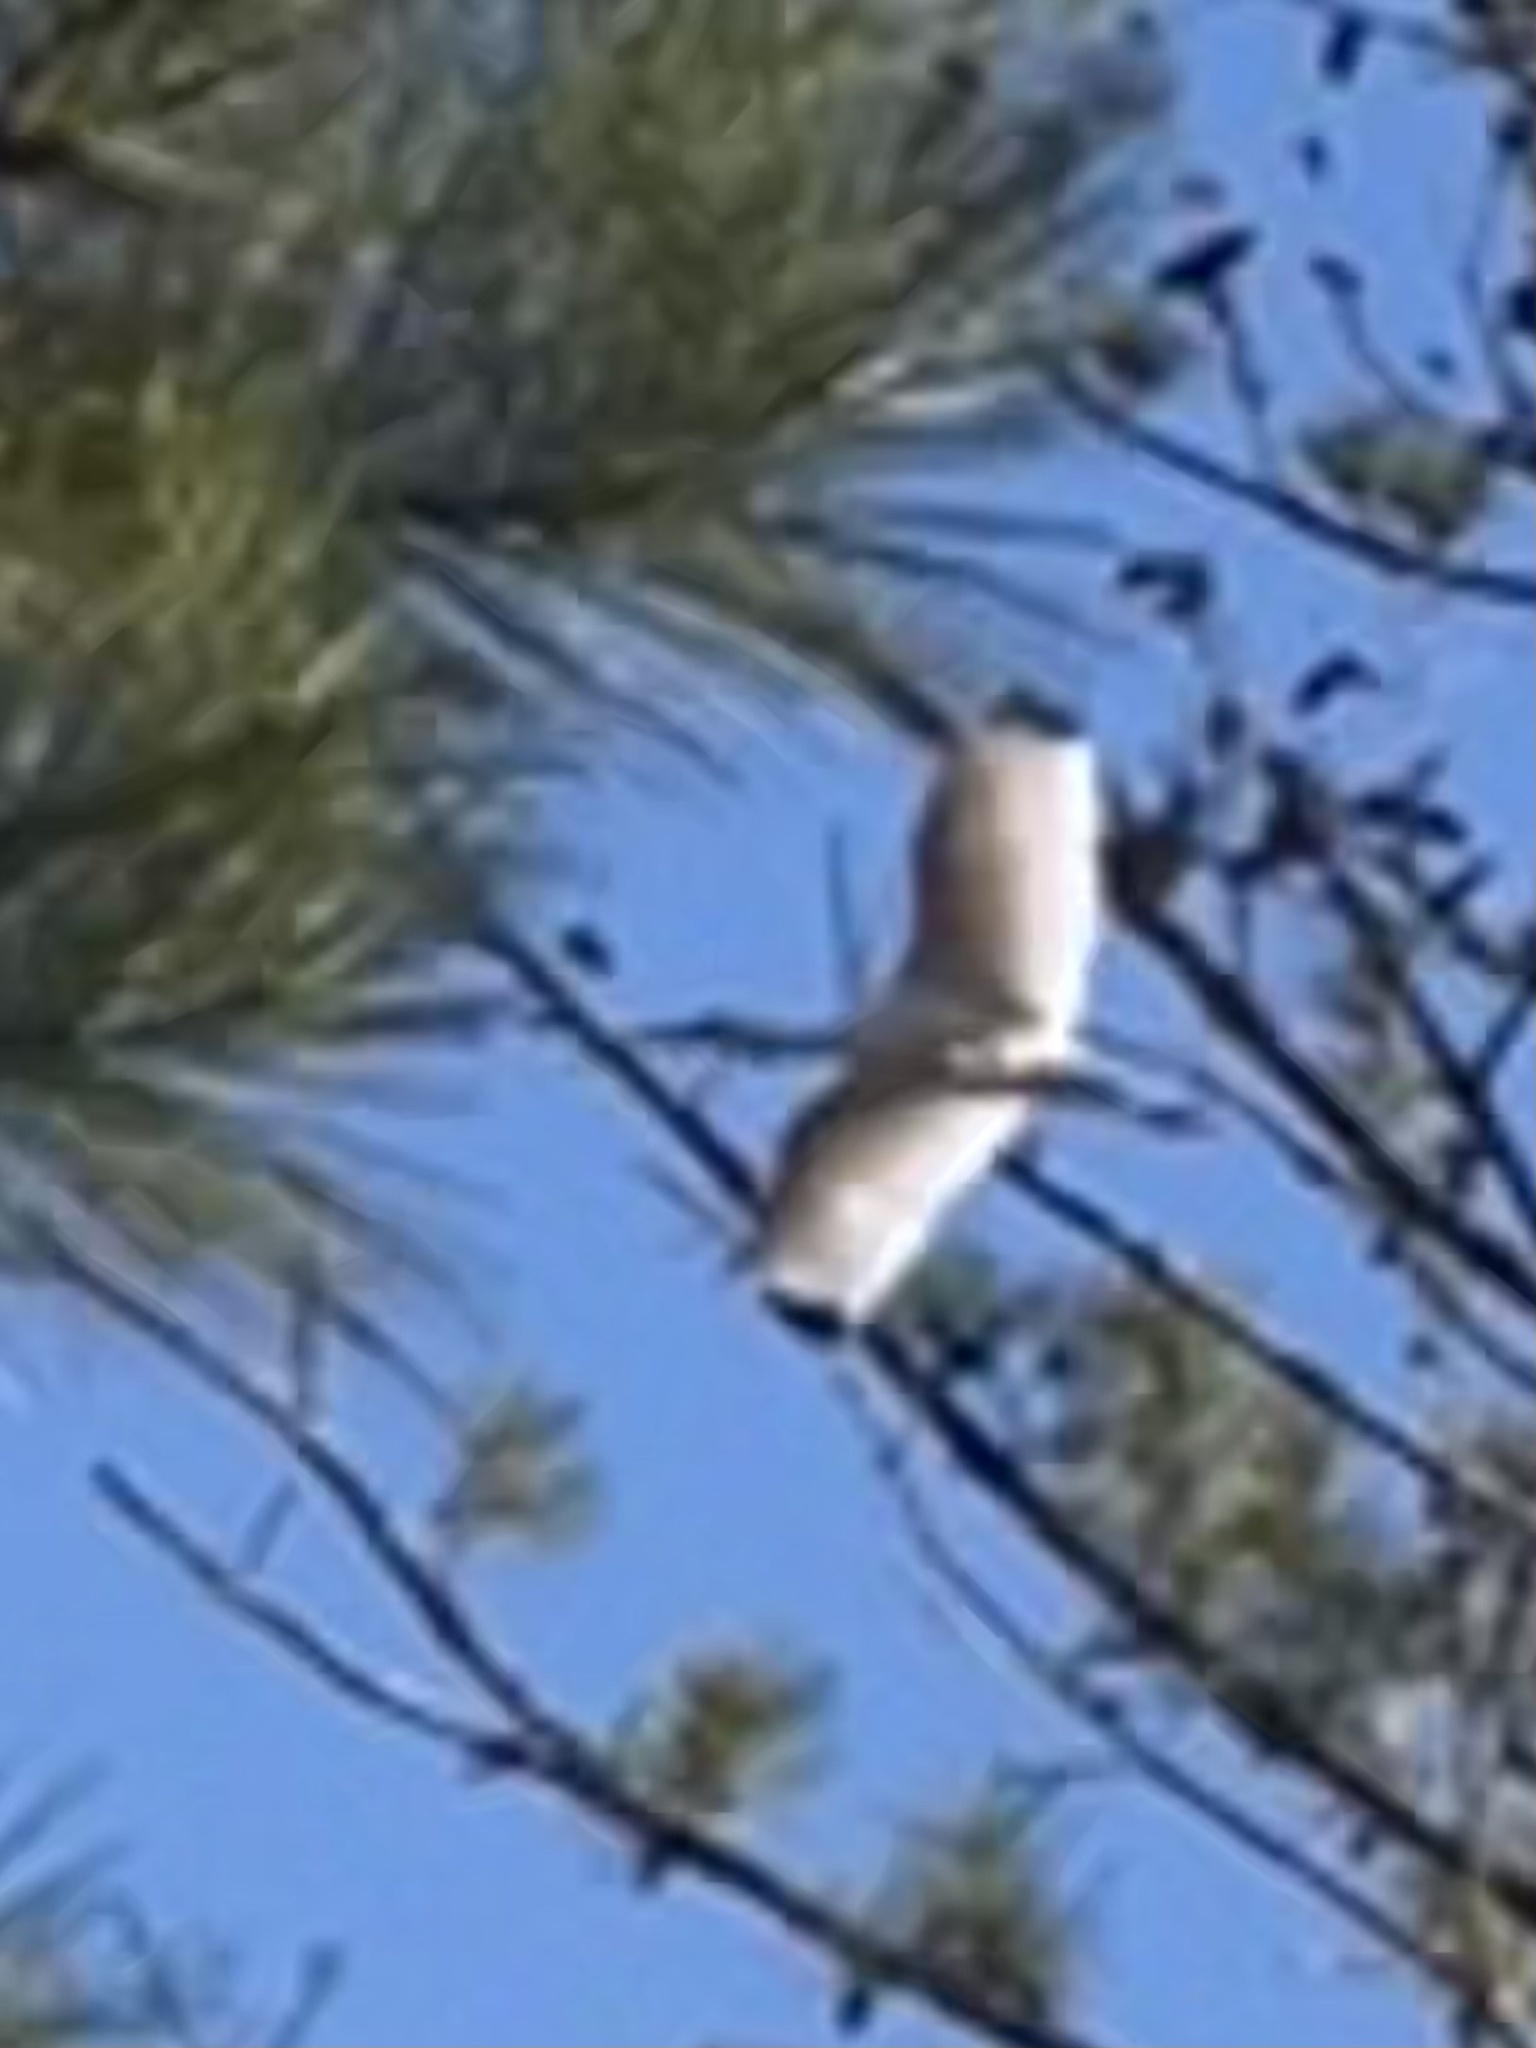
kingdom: Animalia
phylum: Chordata
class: Aves
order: Pelecaniformes
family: Threskiornithidae
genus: Eudocimus
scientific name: Eudocimus albus
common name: White ibis
